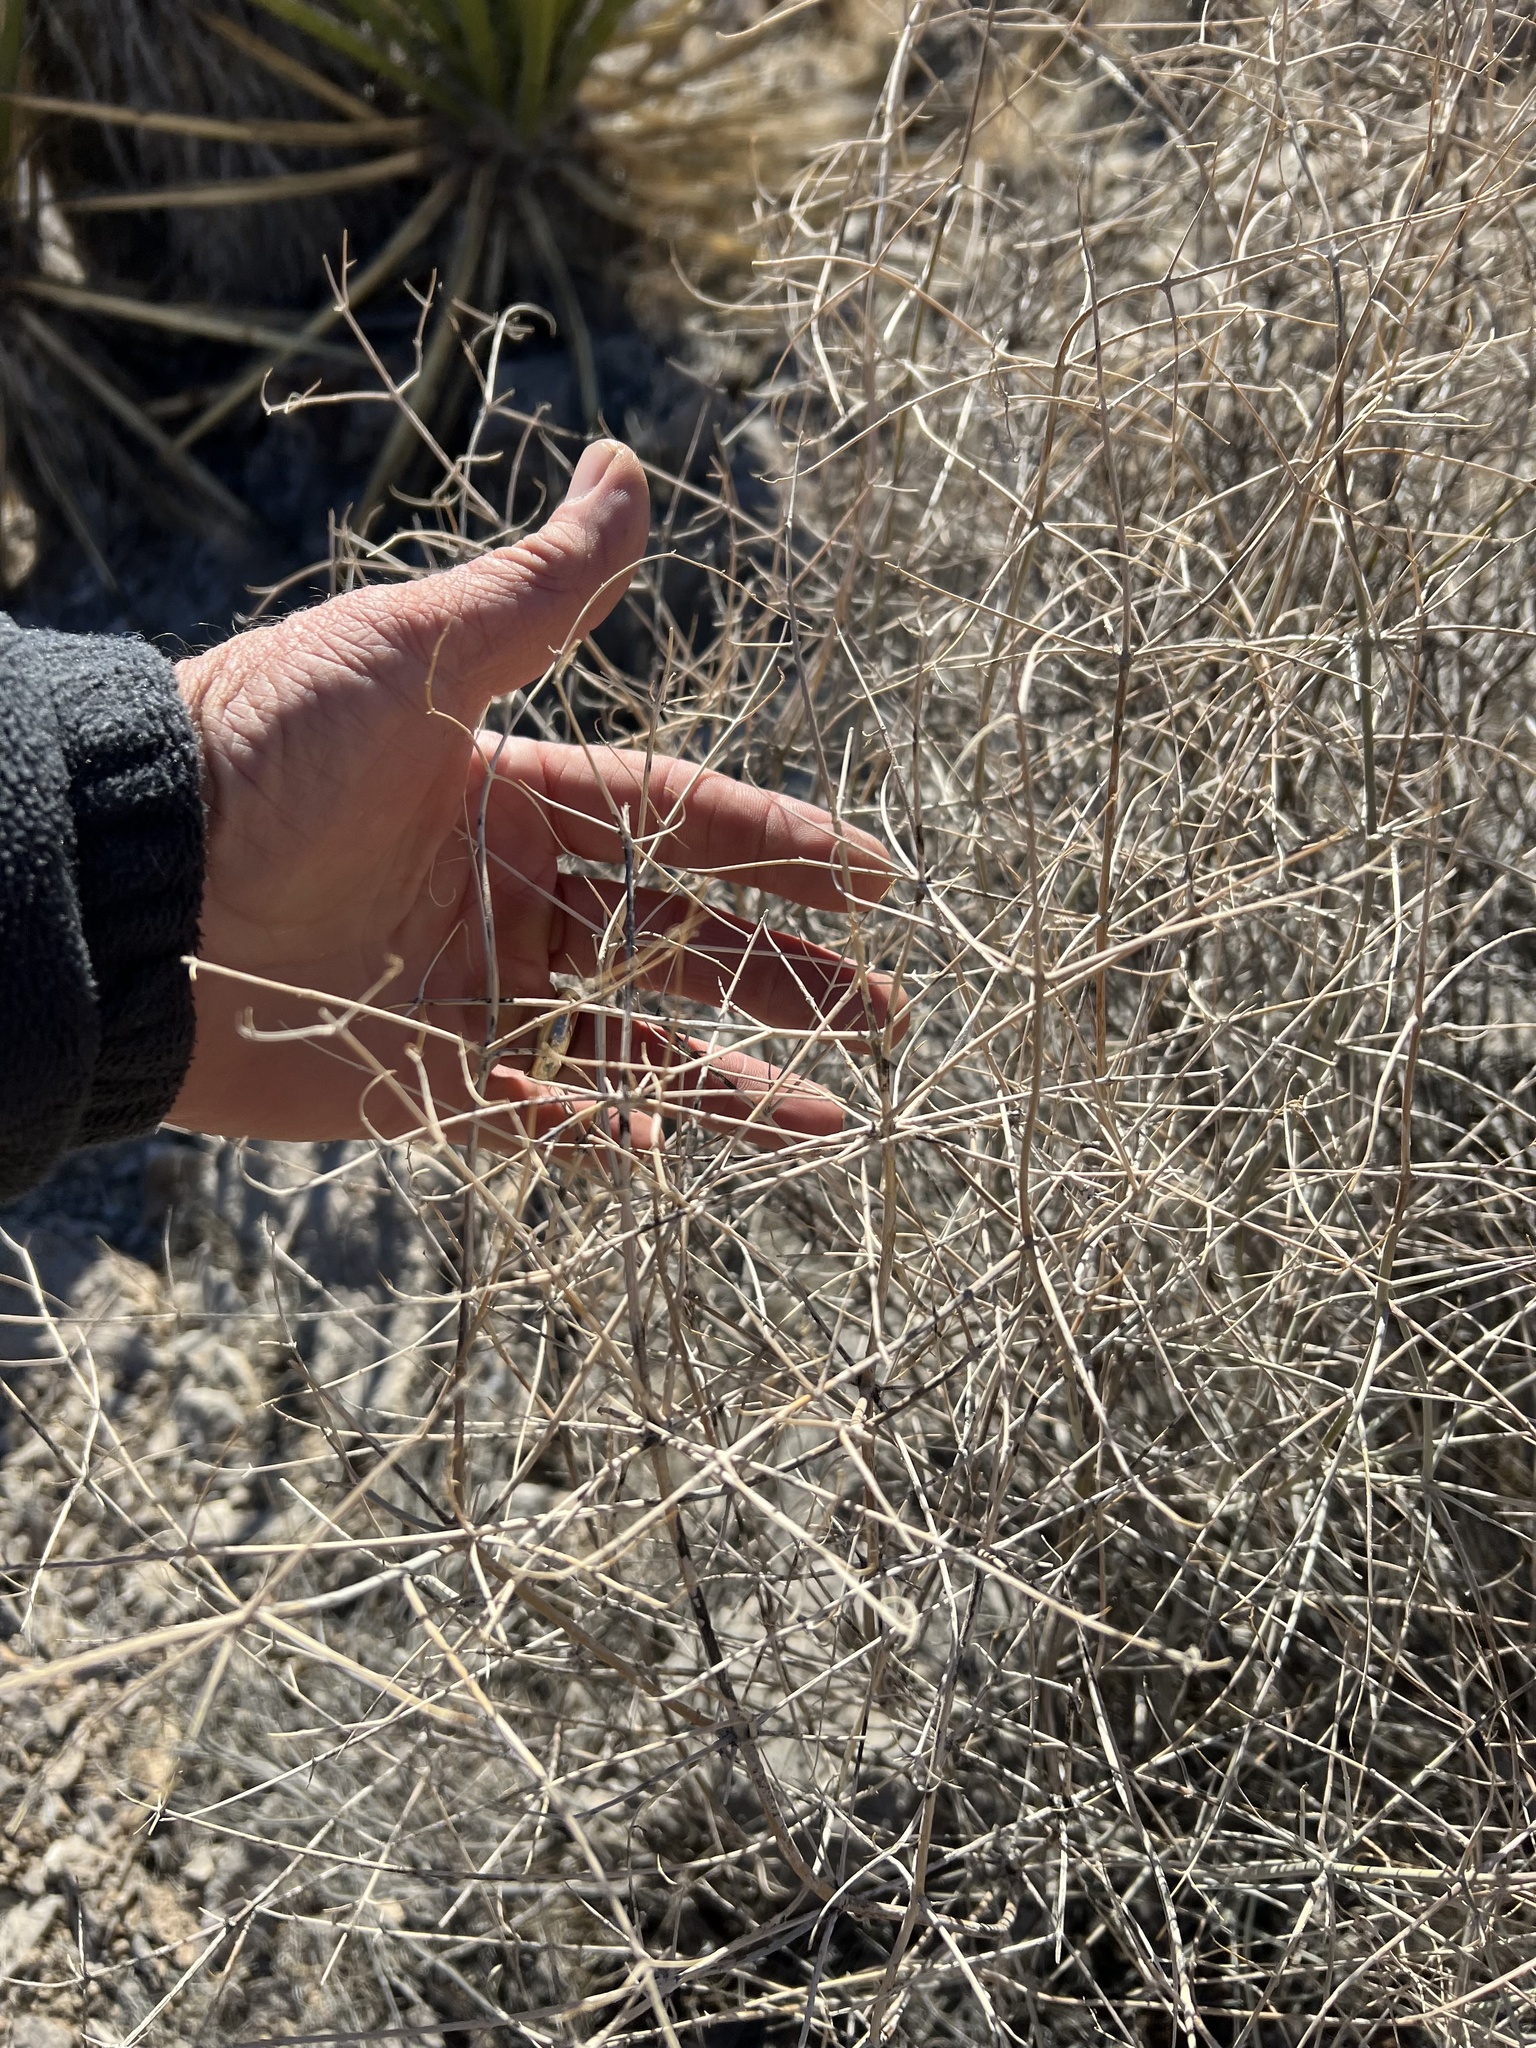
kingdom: Plantae
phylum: Tracheophyta
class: Magnoliopsida
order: Lamiales
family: Lamiaceae
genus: Scutellaria
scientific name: Scutellaria mexicana
